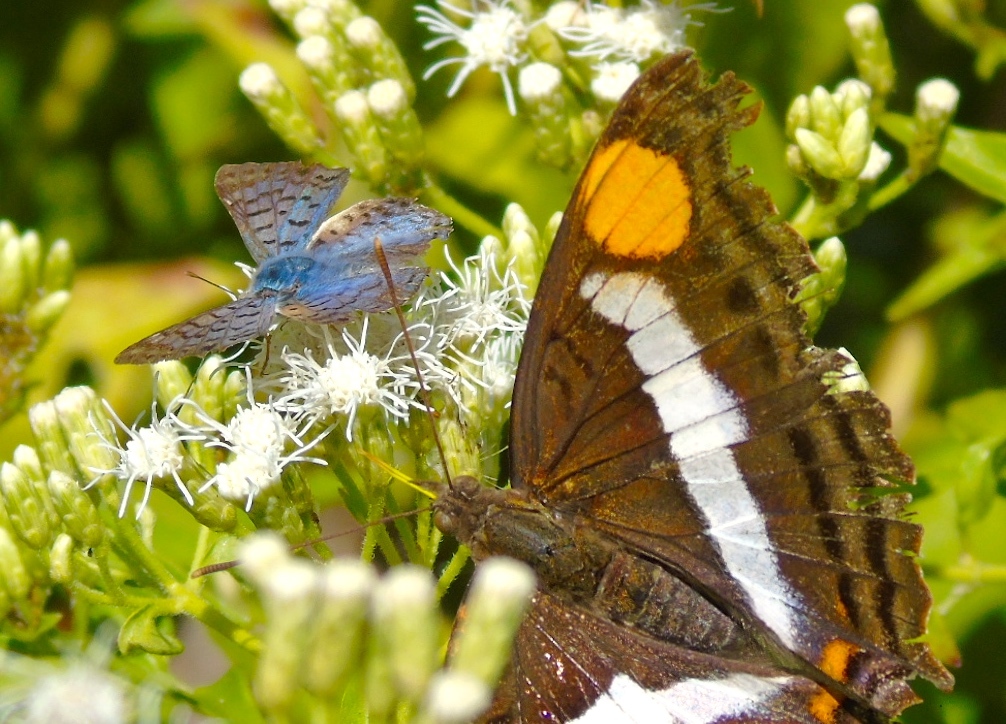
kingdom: Animalia
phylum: Arthropoda
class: Insecta
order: Lepidoptera
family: Nymphalidae
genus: Doxocopa
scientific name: Doxocopa
